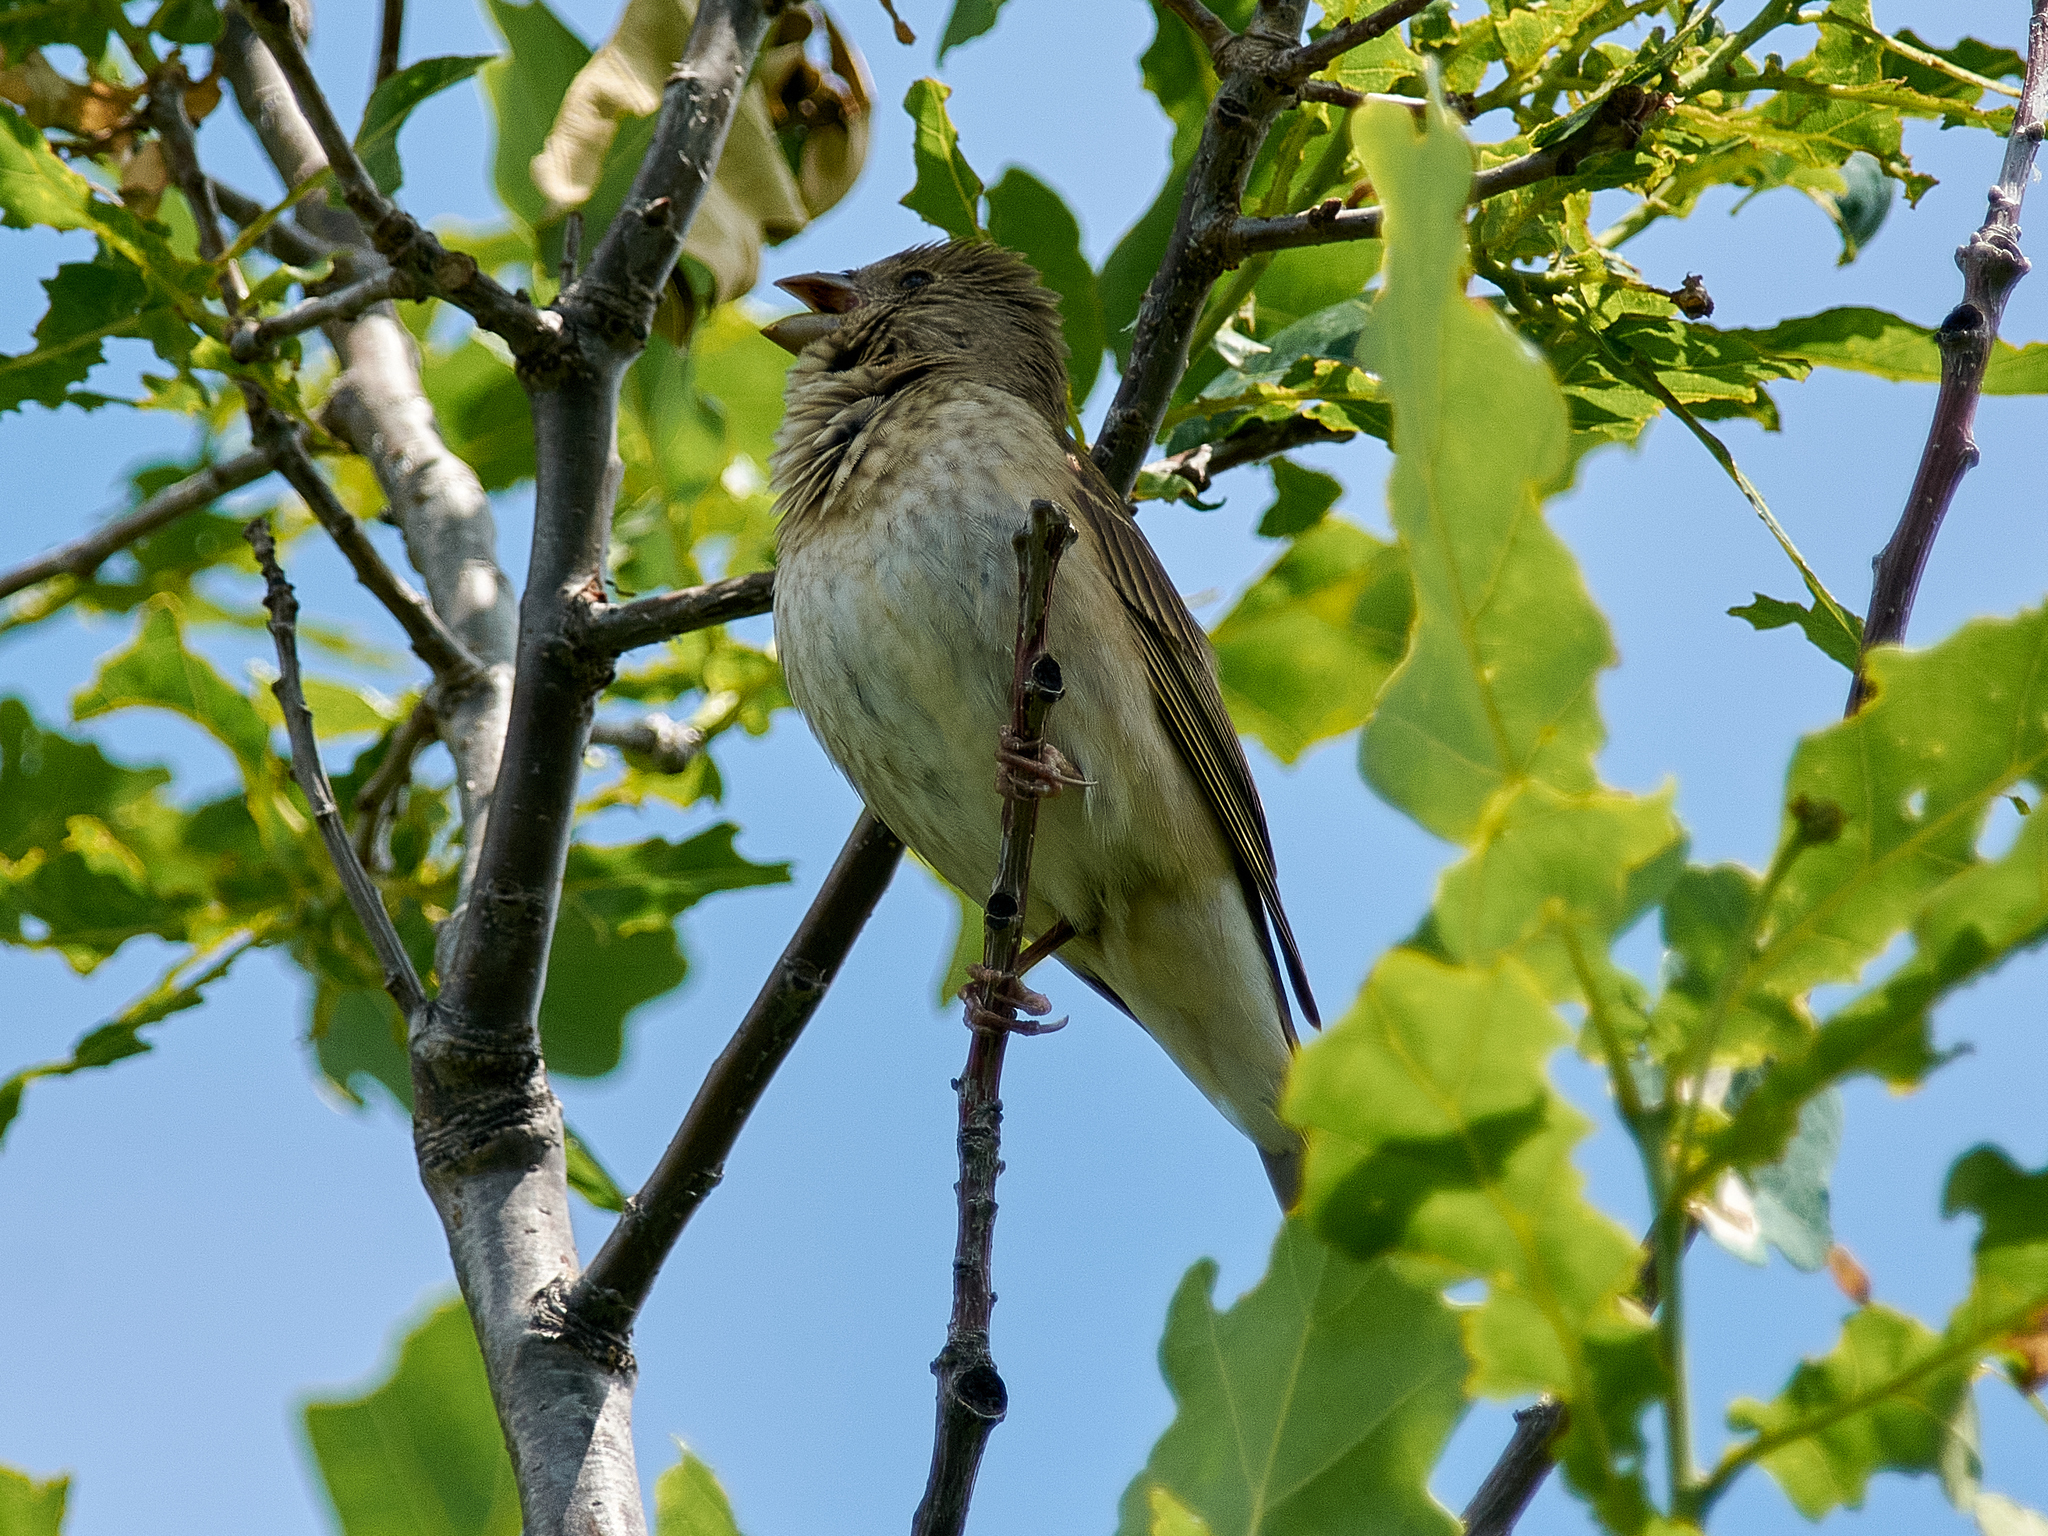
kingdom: Animalia
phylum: Chordata
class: Aves
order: Passeriformes
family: Fringillidae
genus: Carpodacus
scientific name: Carpodacus erythrinus
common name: Common rosefinch
